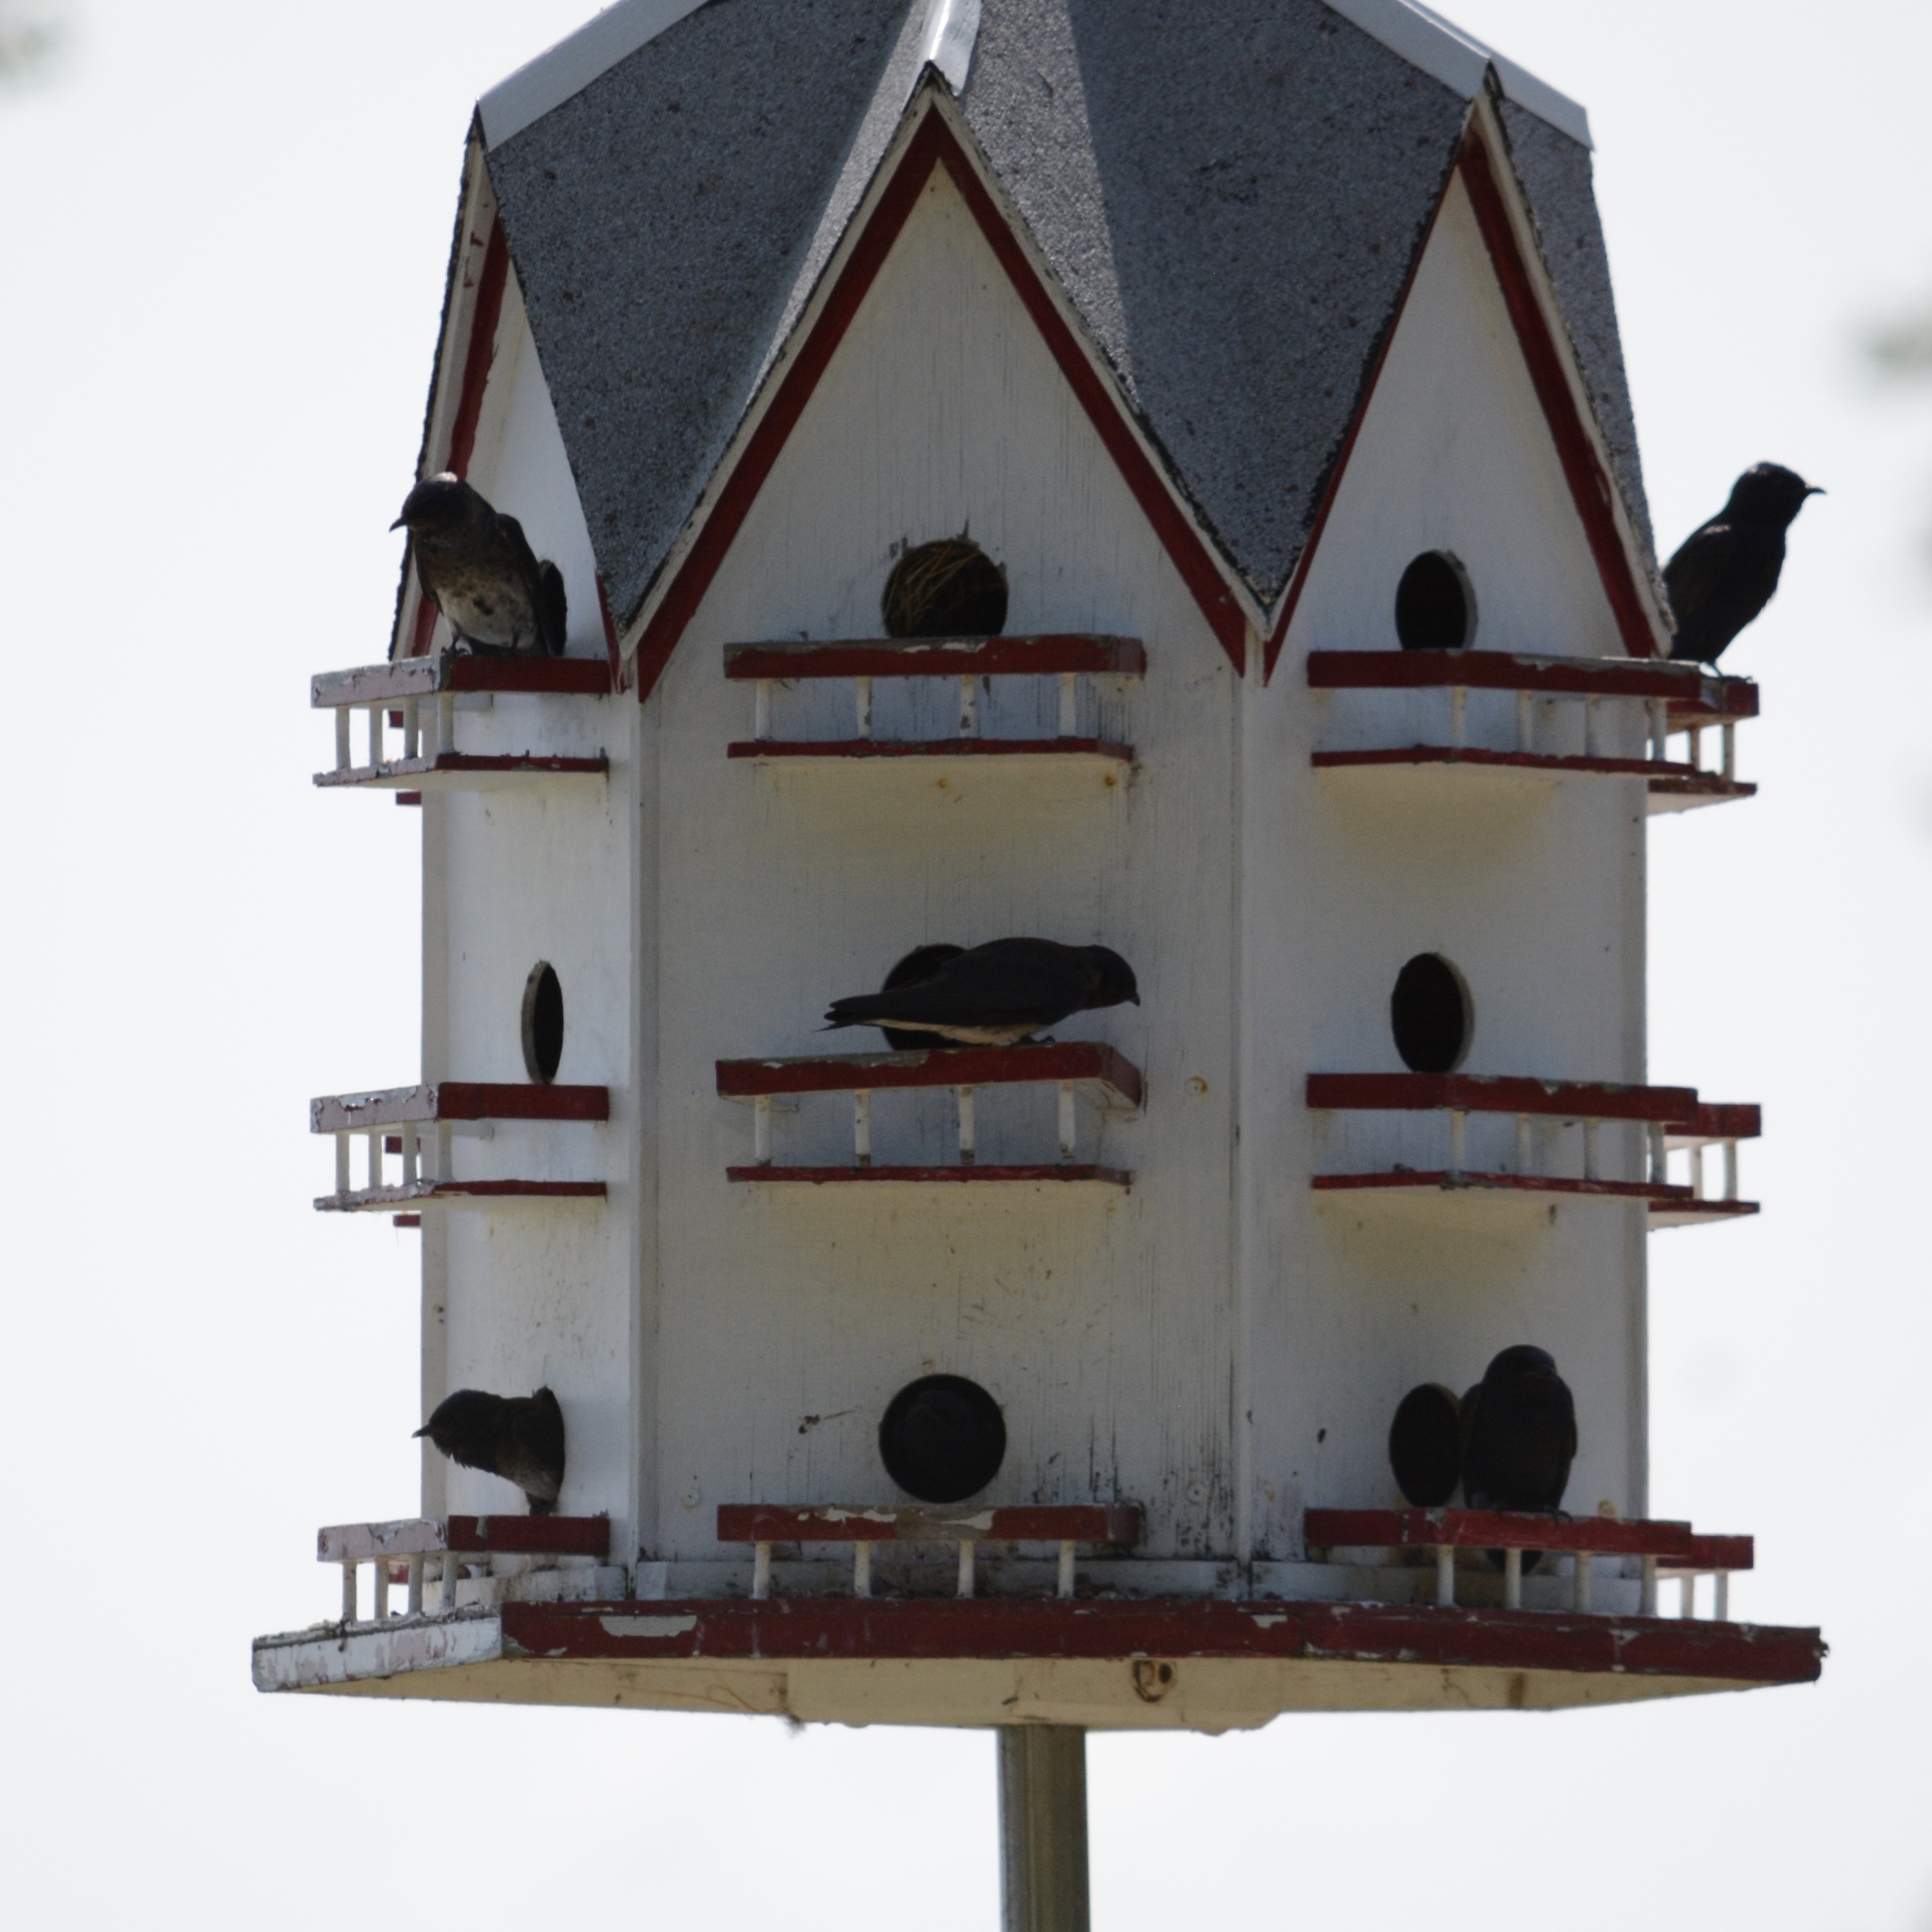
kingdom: Animalia
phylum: Chordata
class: Aves
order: Passeriformes
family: Hirundinidae
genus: Progne
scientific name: Progne subis
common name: Purple martin
